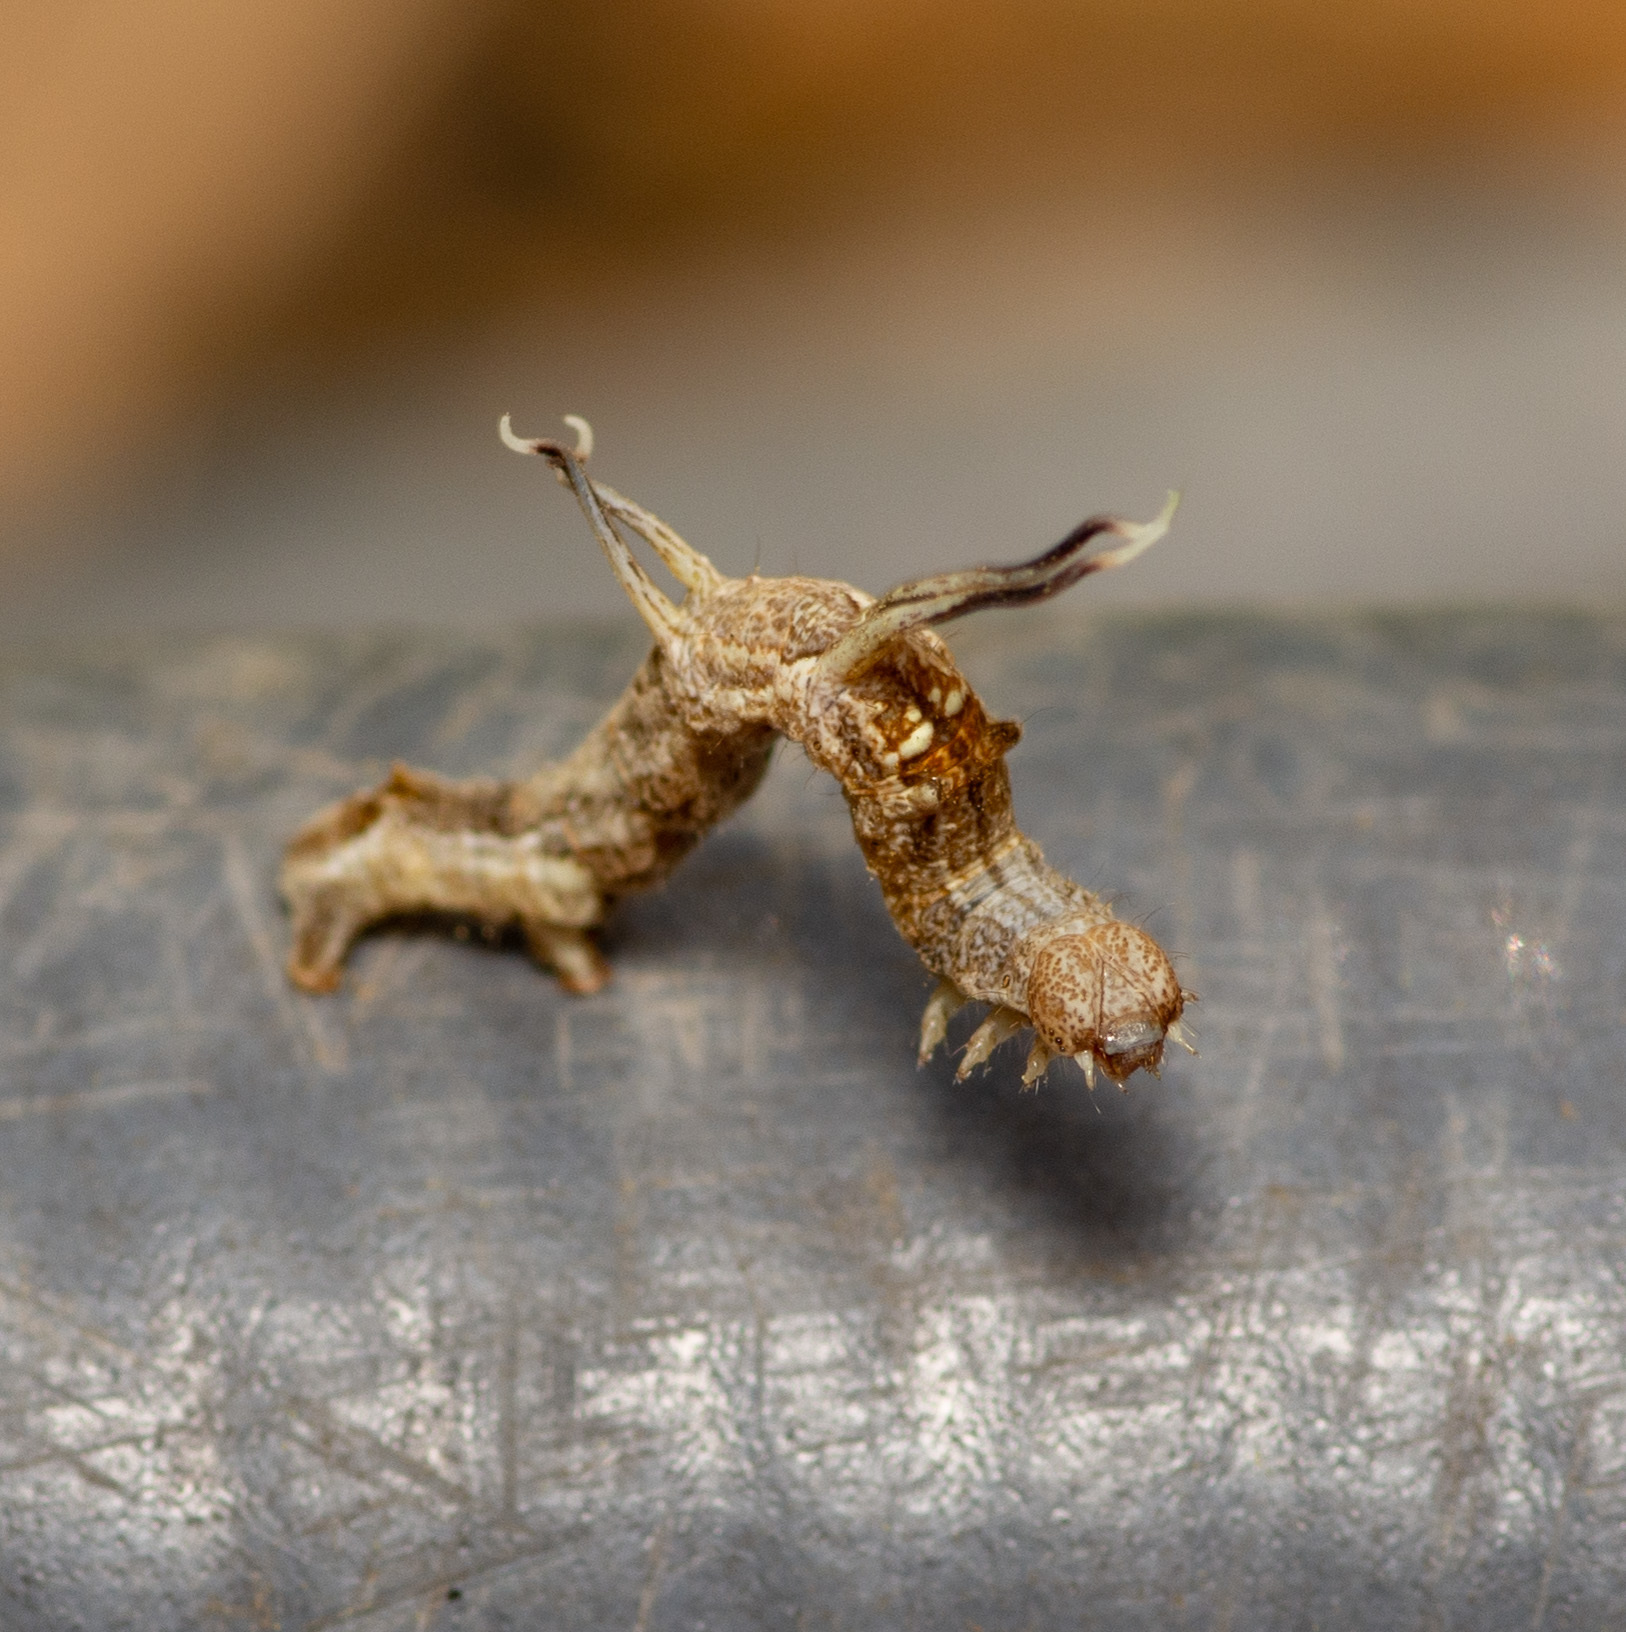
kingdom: Animalia
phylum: Arthropoda
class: Insecta
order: Lepidoptera
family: Geometridae
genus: Nematocampa
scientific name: Nematocampa resistaria
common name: Horned spanworm moth
